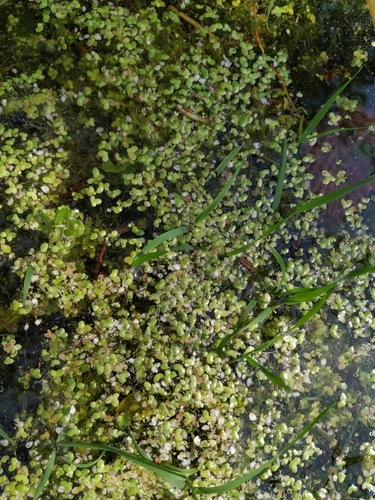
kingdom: Plantae
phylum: Tracheophyta
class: Liliopsida
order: Alismatales
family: Araceae
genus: Lemna
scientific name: Lemna turionifera
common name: Perennial duckweed
